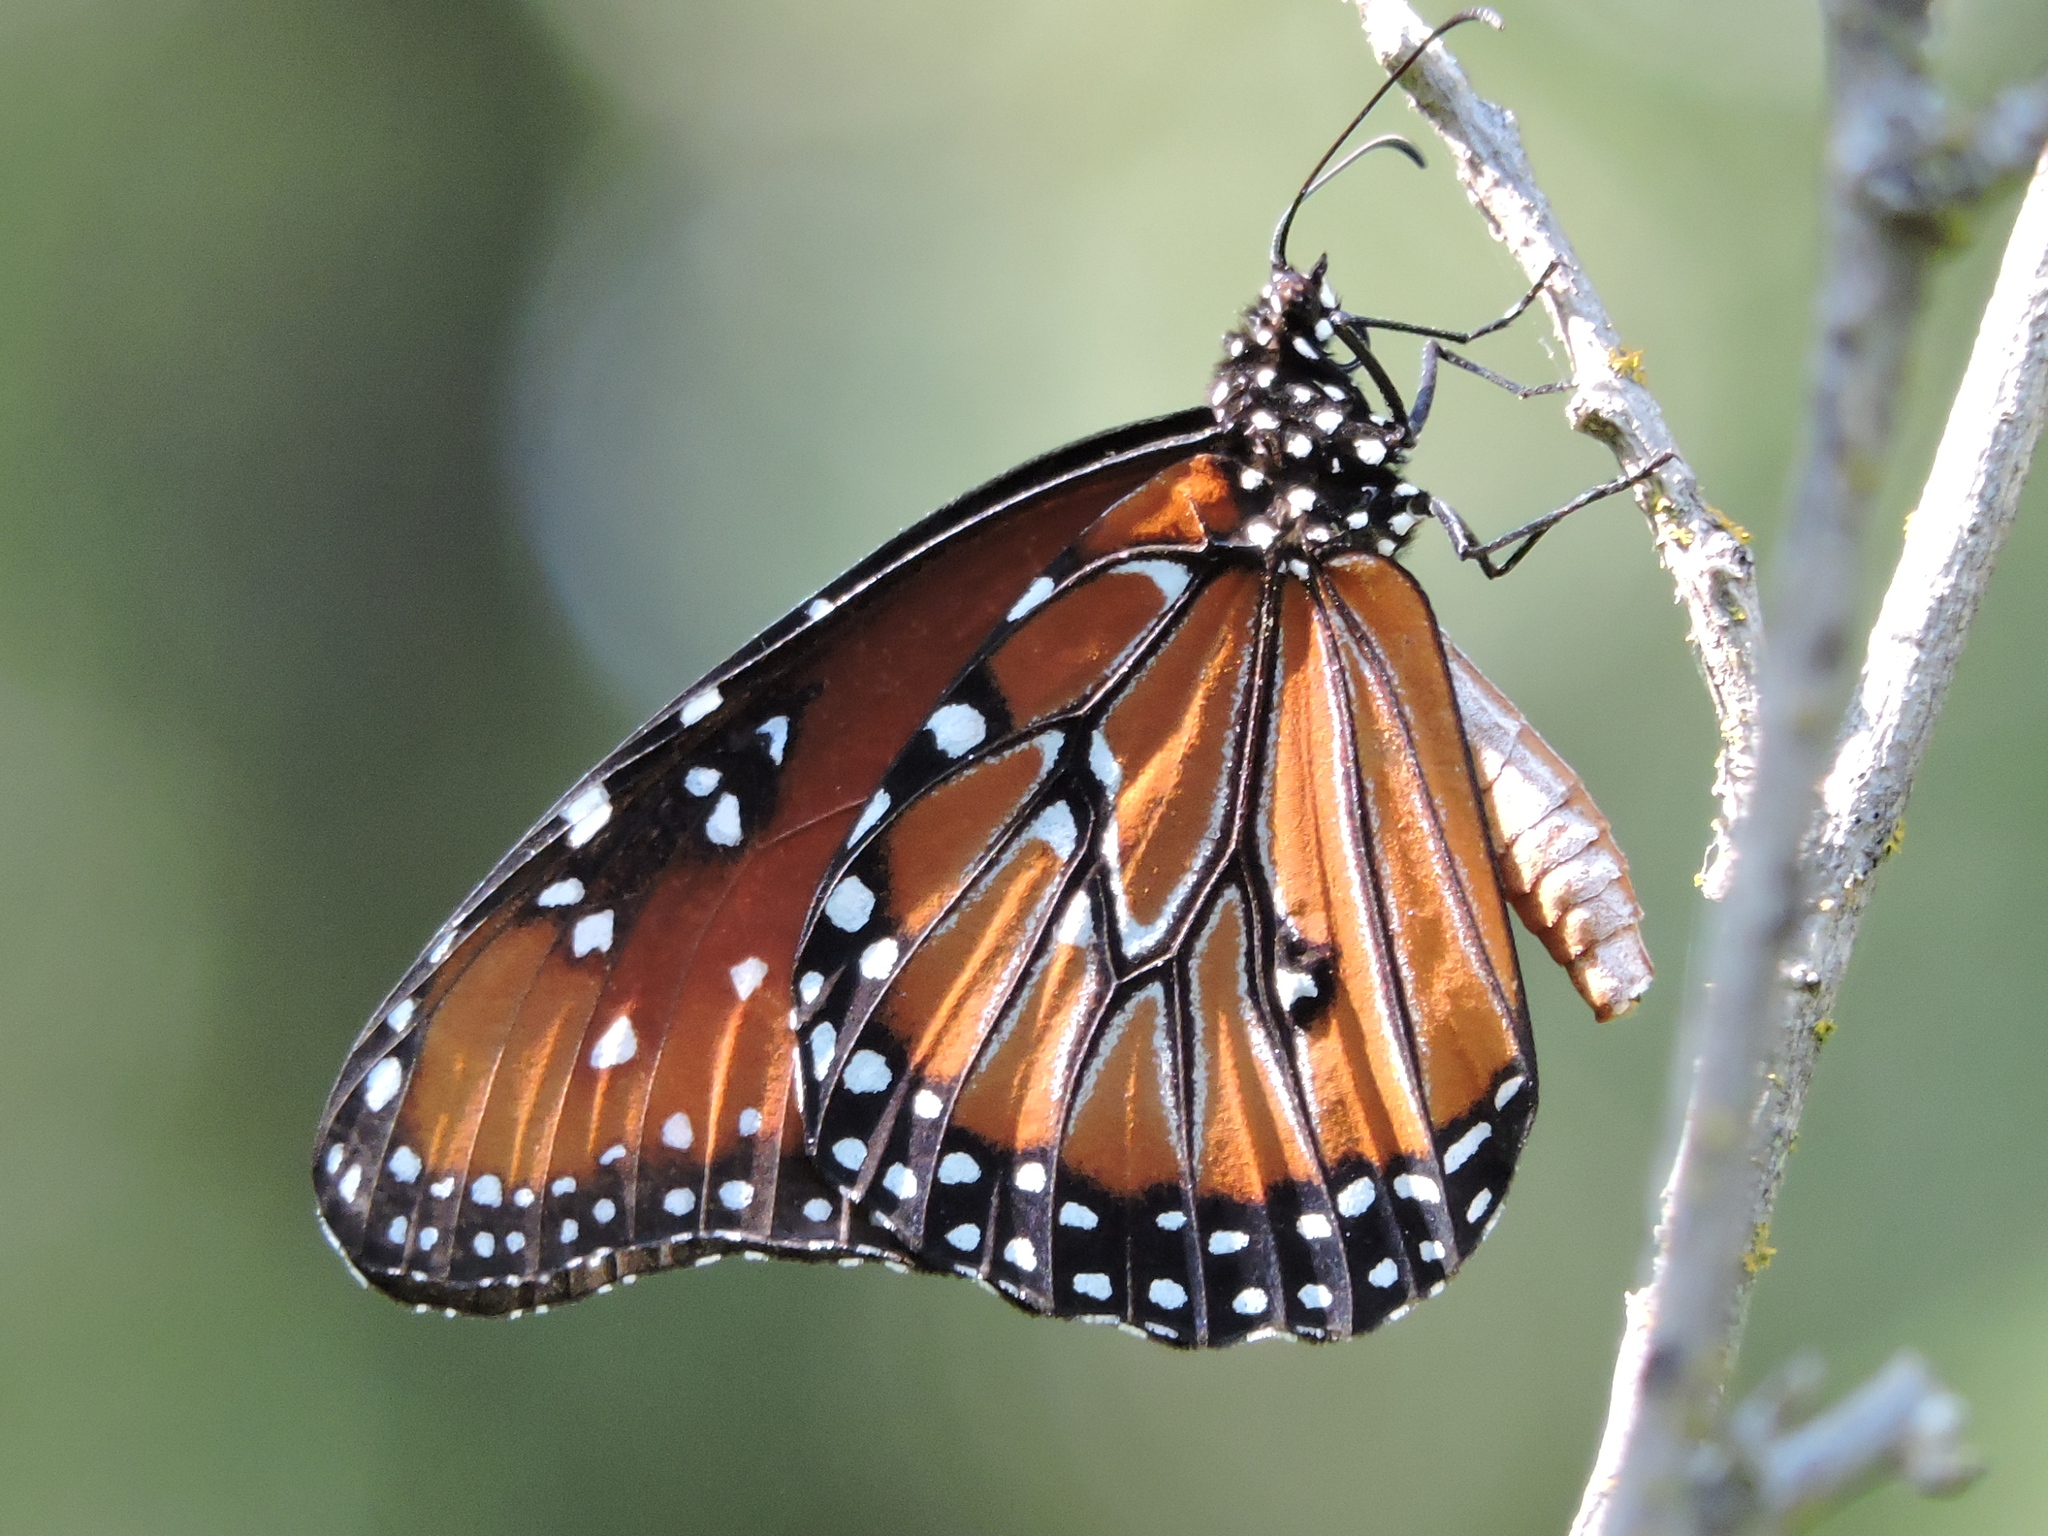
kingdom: Animalia
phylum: Arthropoda
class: Insecta
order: Lepidoptera
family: Nymphalidae
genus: Danaus
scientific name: Danaus gilippus
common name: Queen
